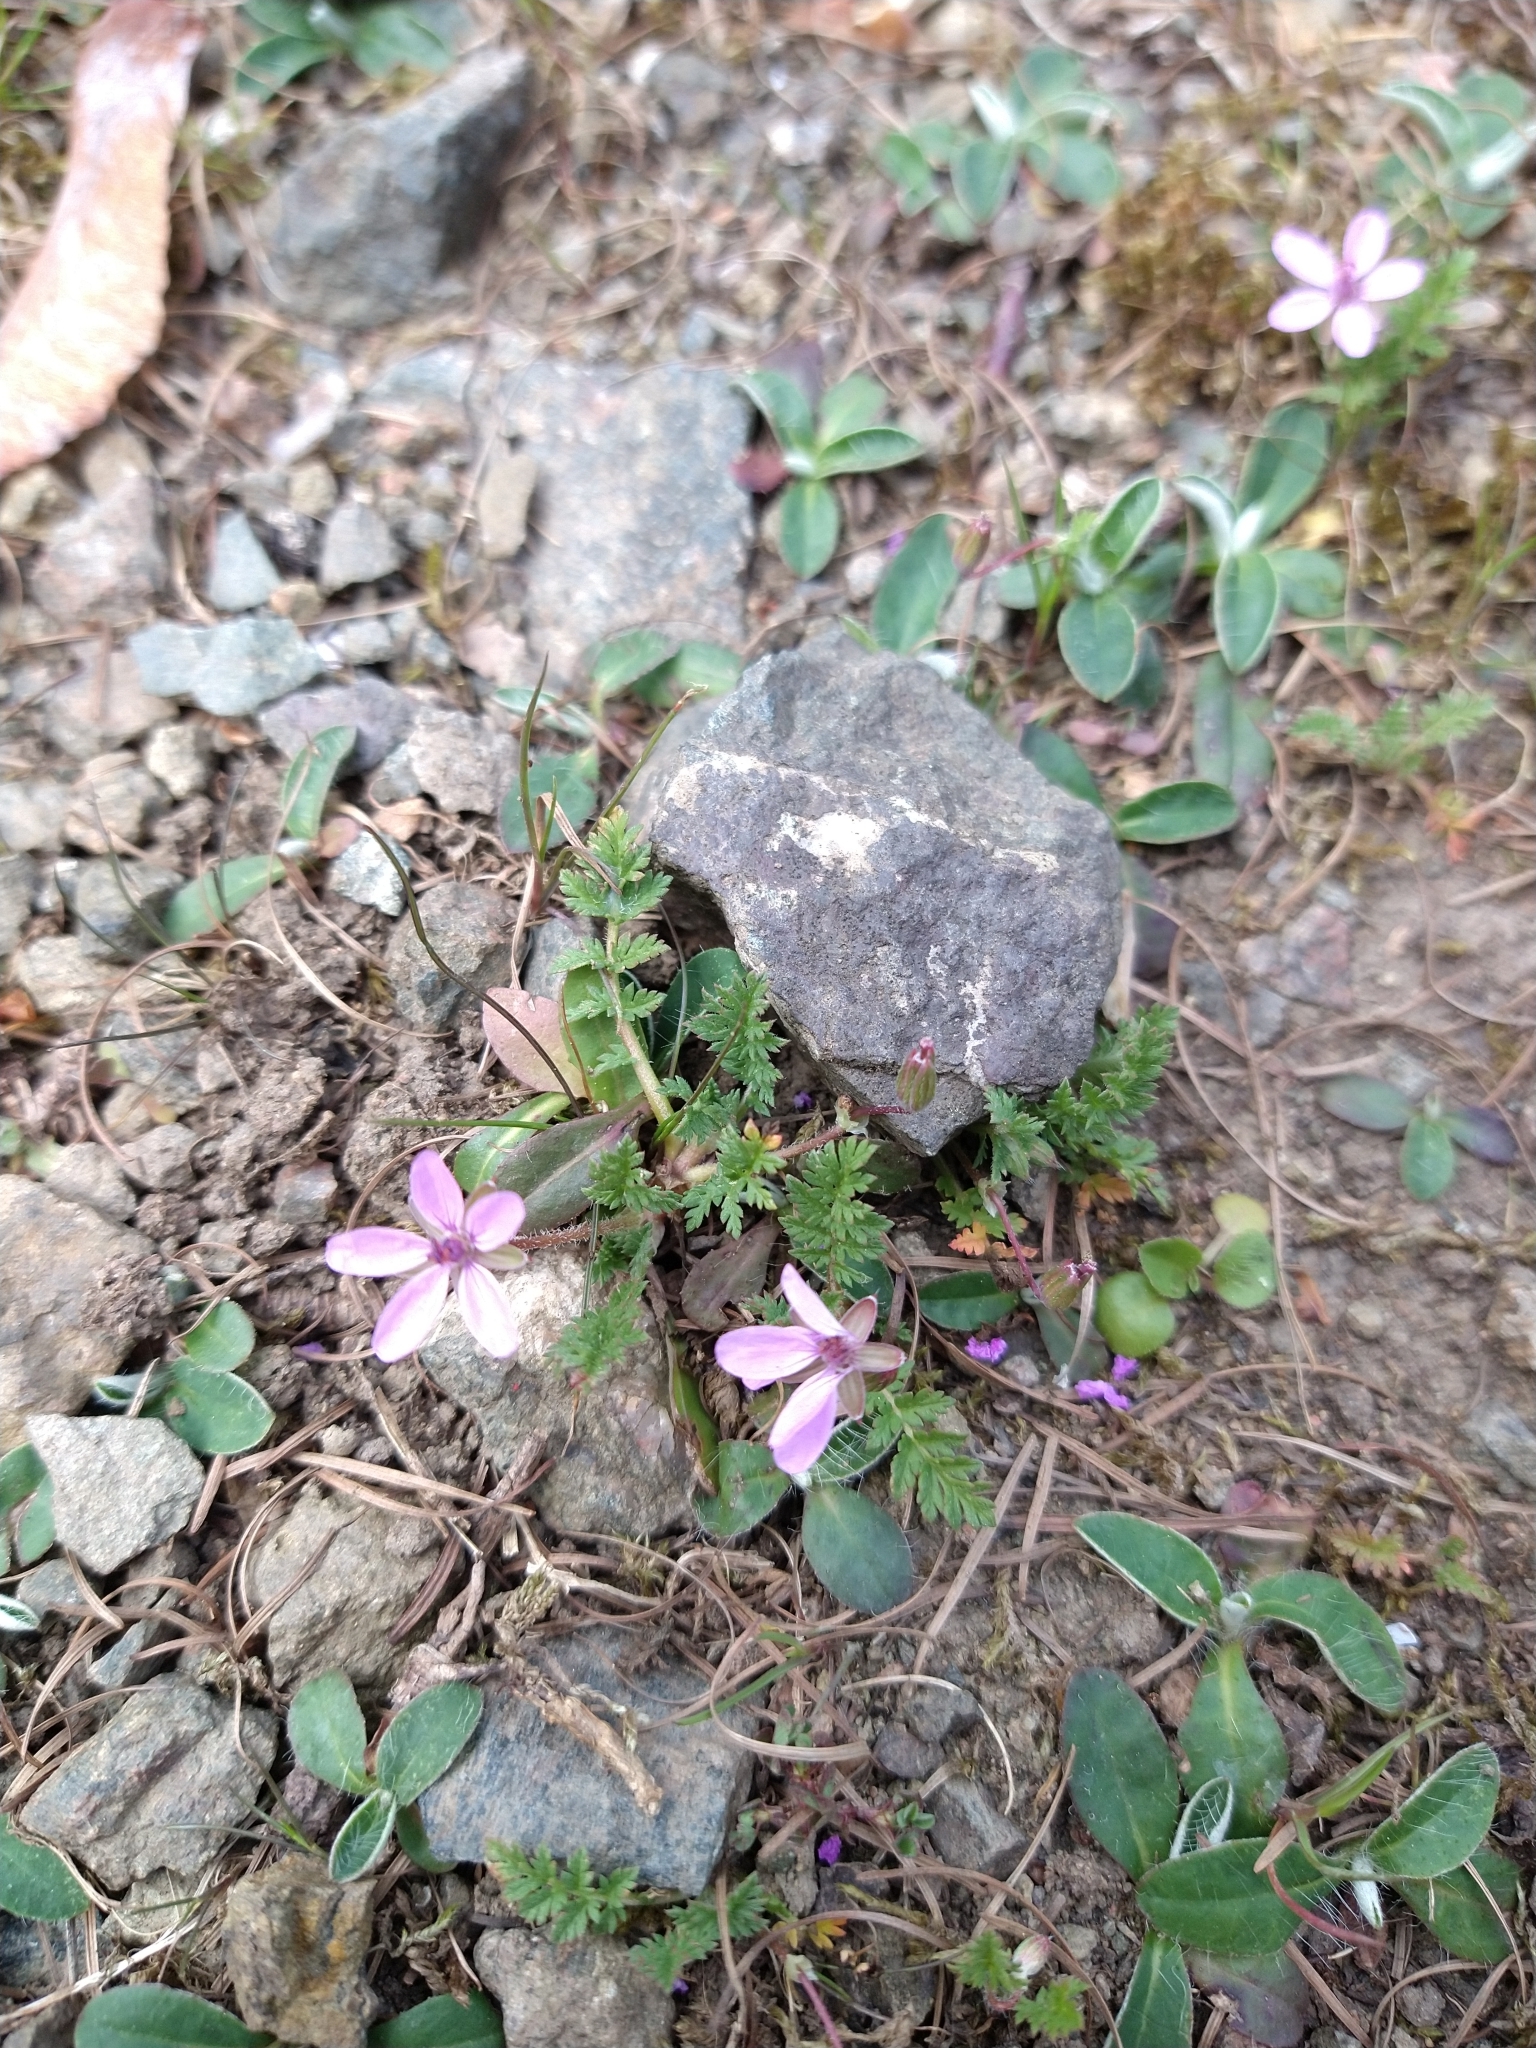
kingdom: Plantae
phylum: Tracheophyta
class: Magnoliopsida
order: Geraniales
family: Geraniaceae
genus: Erodium
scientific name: Erodium cicutarium
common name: Common stork's-bill
